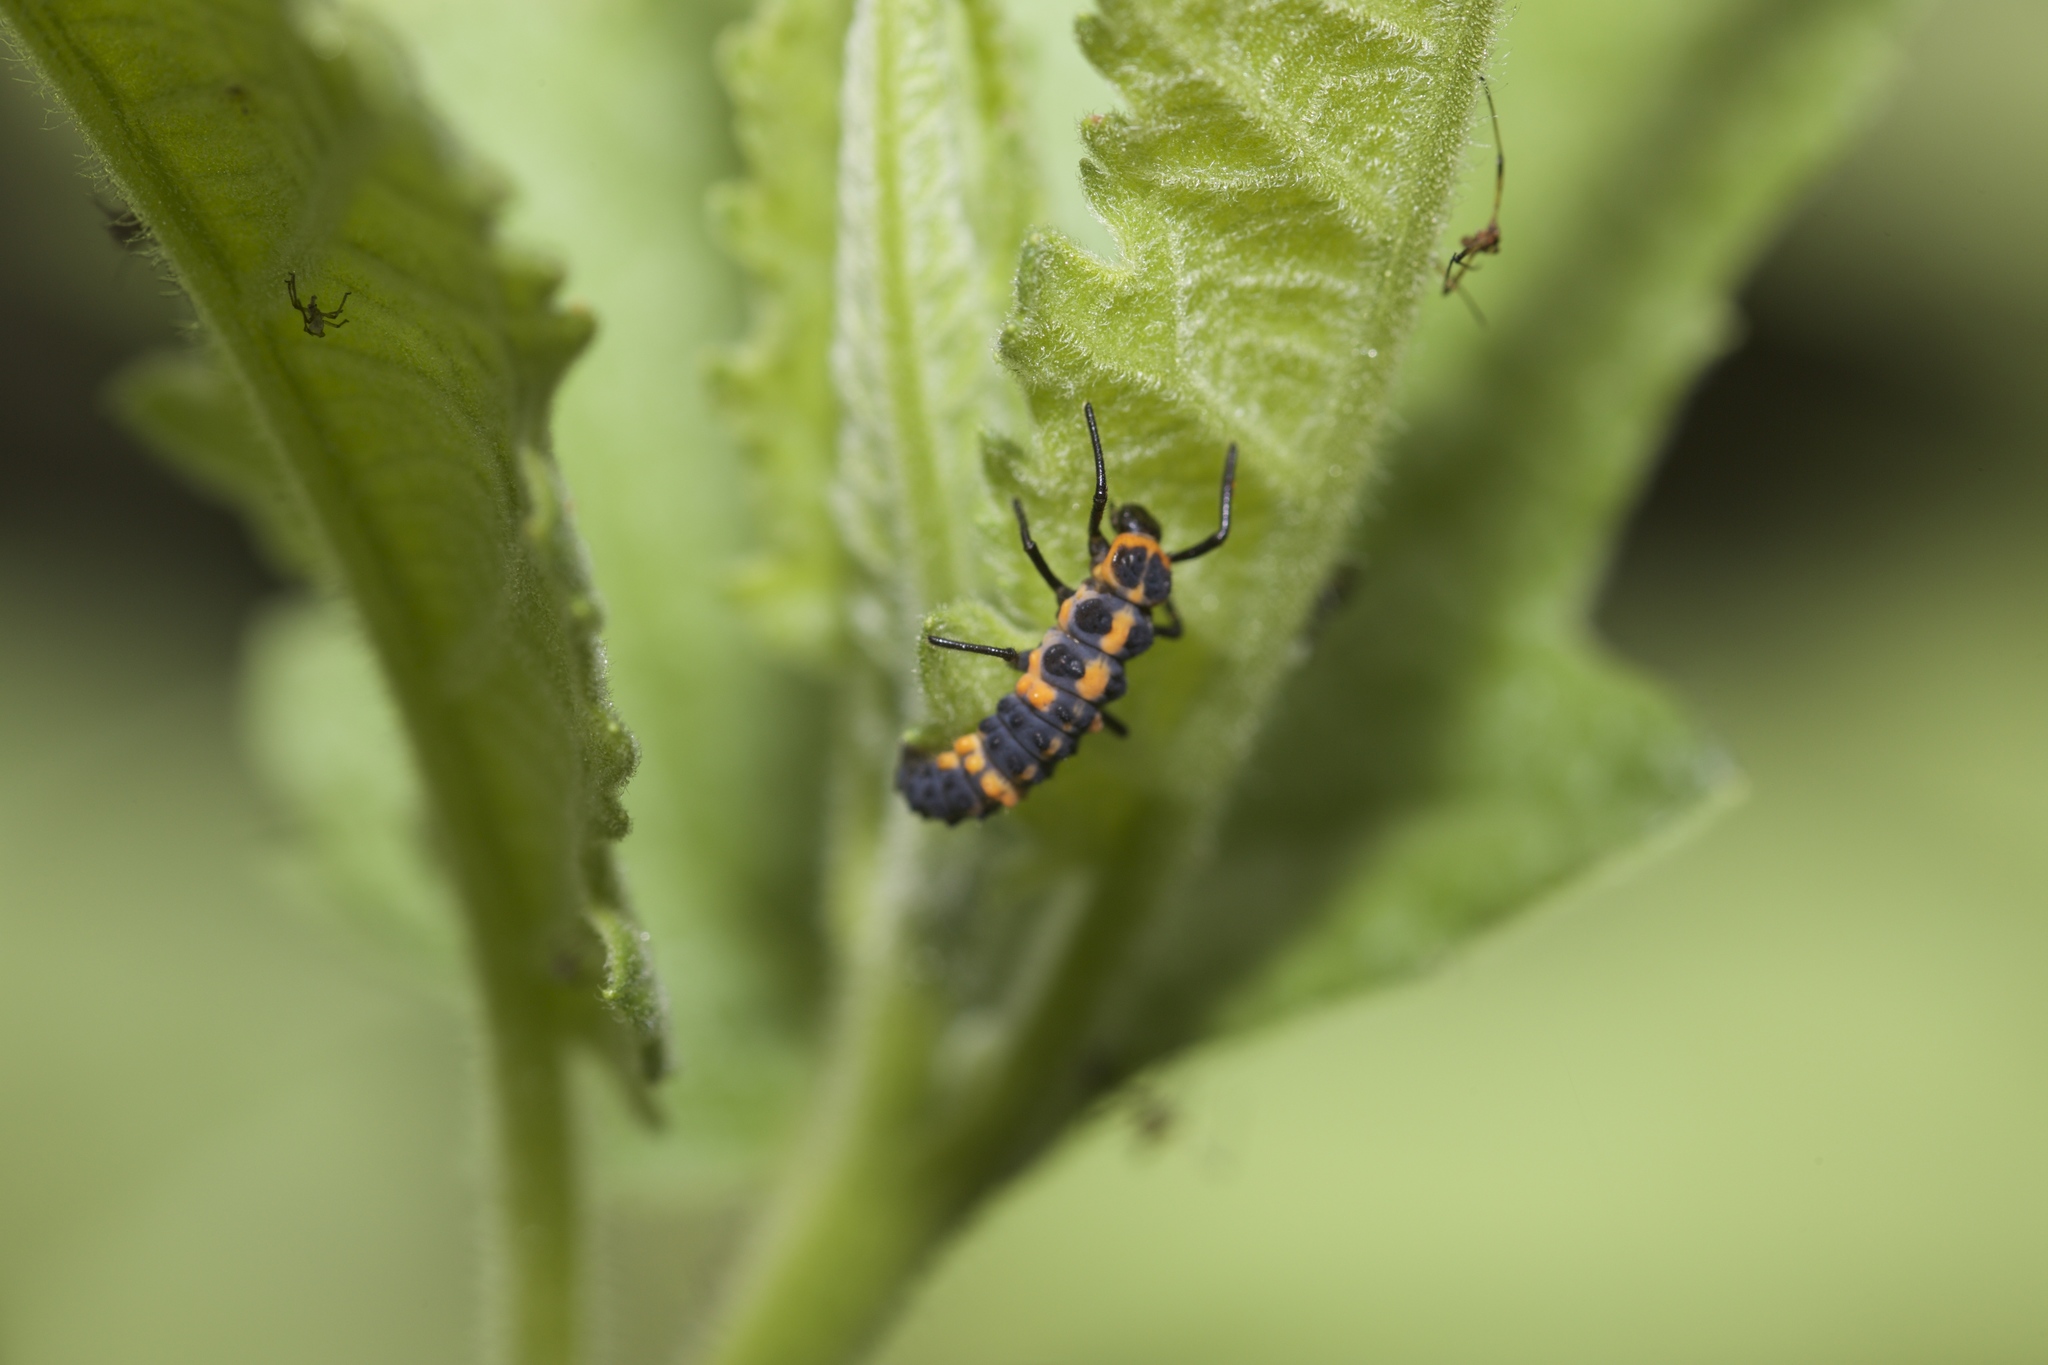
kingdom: Animalia
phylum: Arthropoda
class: Insecta
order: Coleoptera
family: Coccinellidae
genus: Coccinellina
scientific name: Coccinellina
